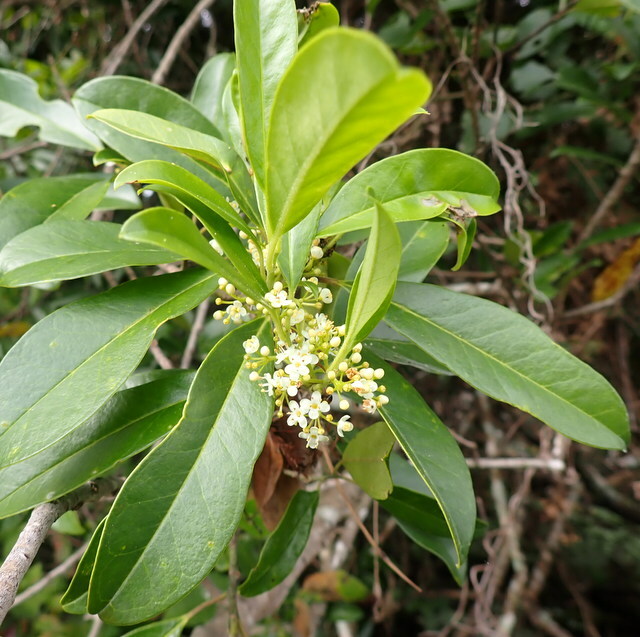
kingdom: Plantae
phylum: Tracheophyta
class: Magnoliopsida
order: Aquifoliales
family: Aquifoliaceae
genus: Ilex
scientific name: Ilex cassine
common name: Dahoon
